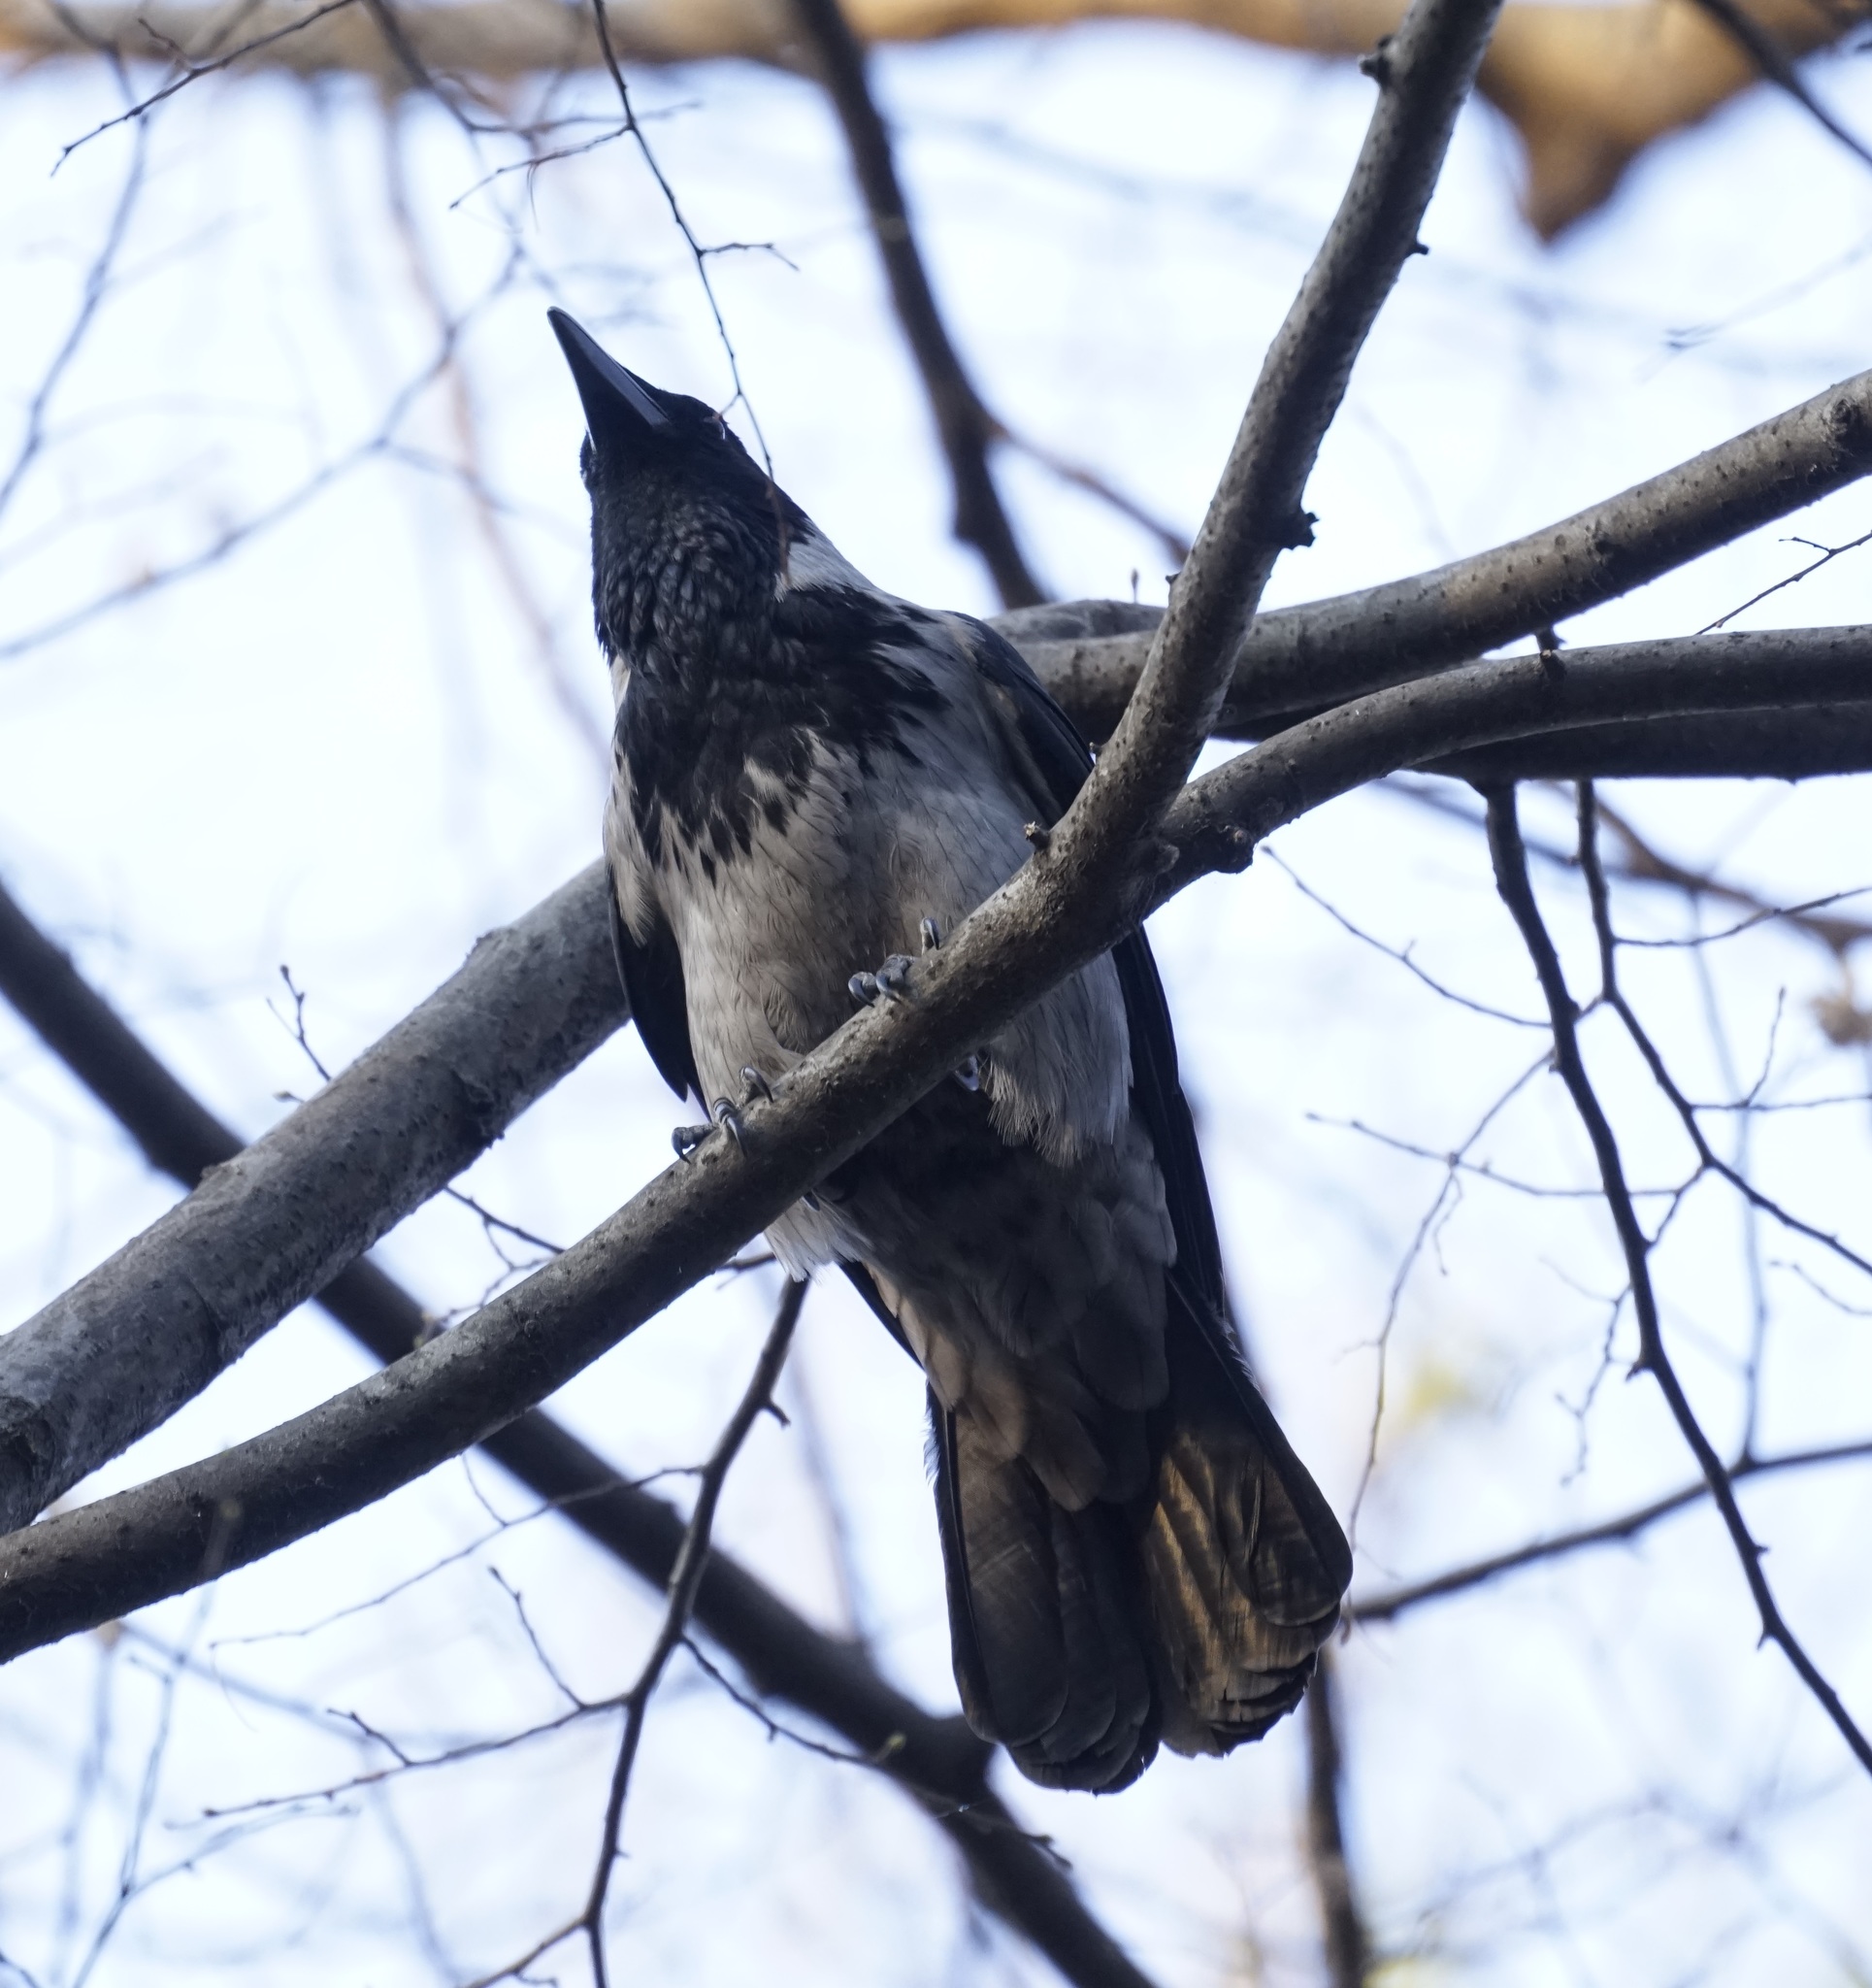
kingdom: Animalia
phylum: Chordata
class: Aves
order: Passeriformes
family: Corvidae
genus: Corvus
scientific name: Corvus cornix
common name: Hooded crow
